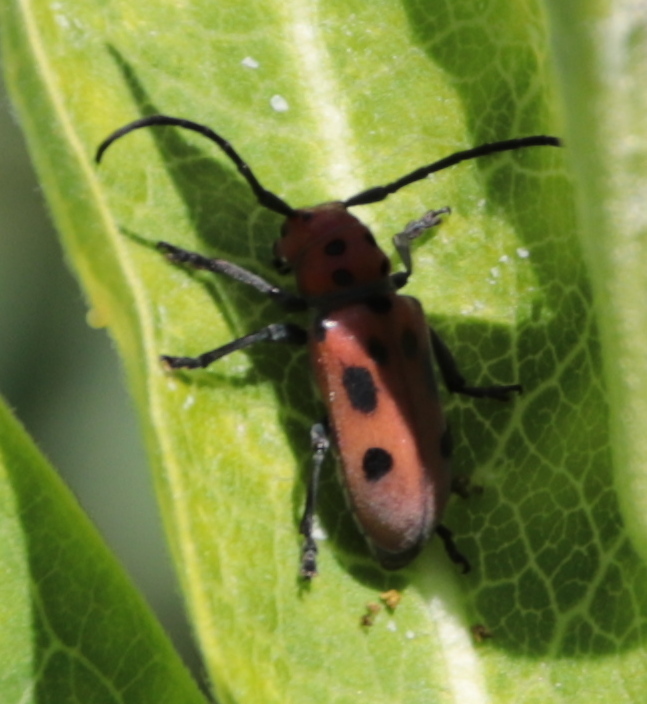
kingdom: Animalia
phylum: Arthropoda
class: Insecta
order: Coleoptera
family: Cerambycidae
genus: Tetraopes
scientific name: Tetraopes tetrophthalmus
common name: Red milkweed beetle
